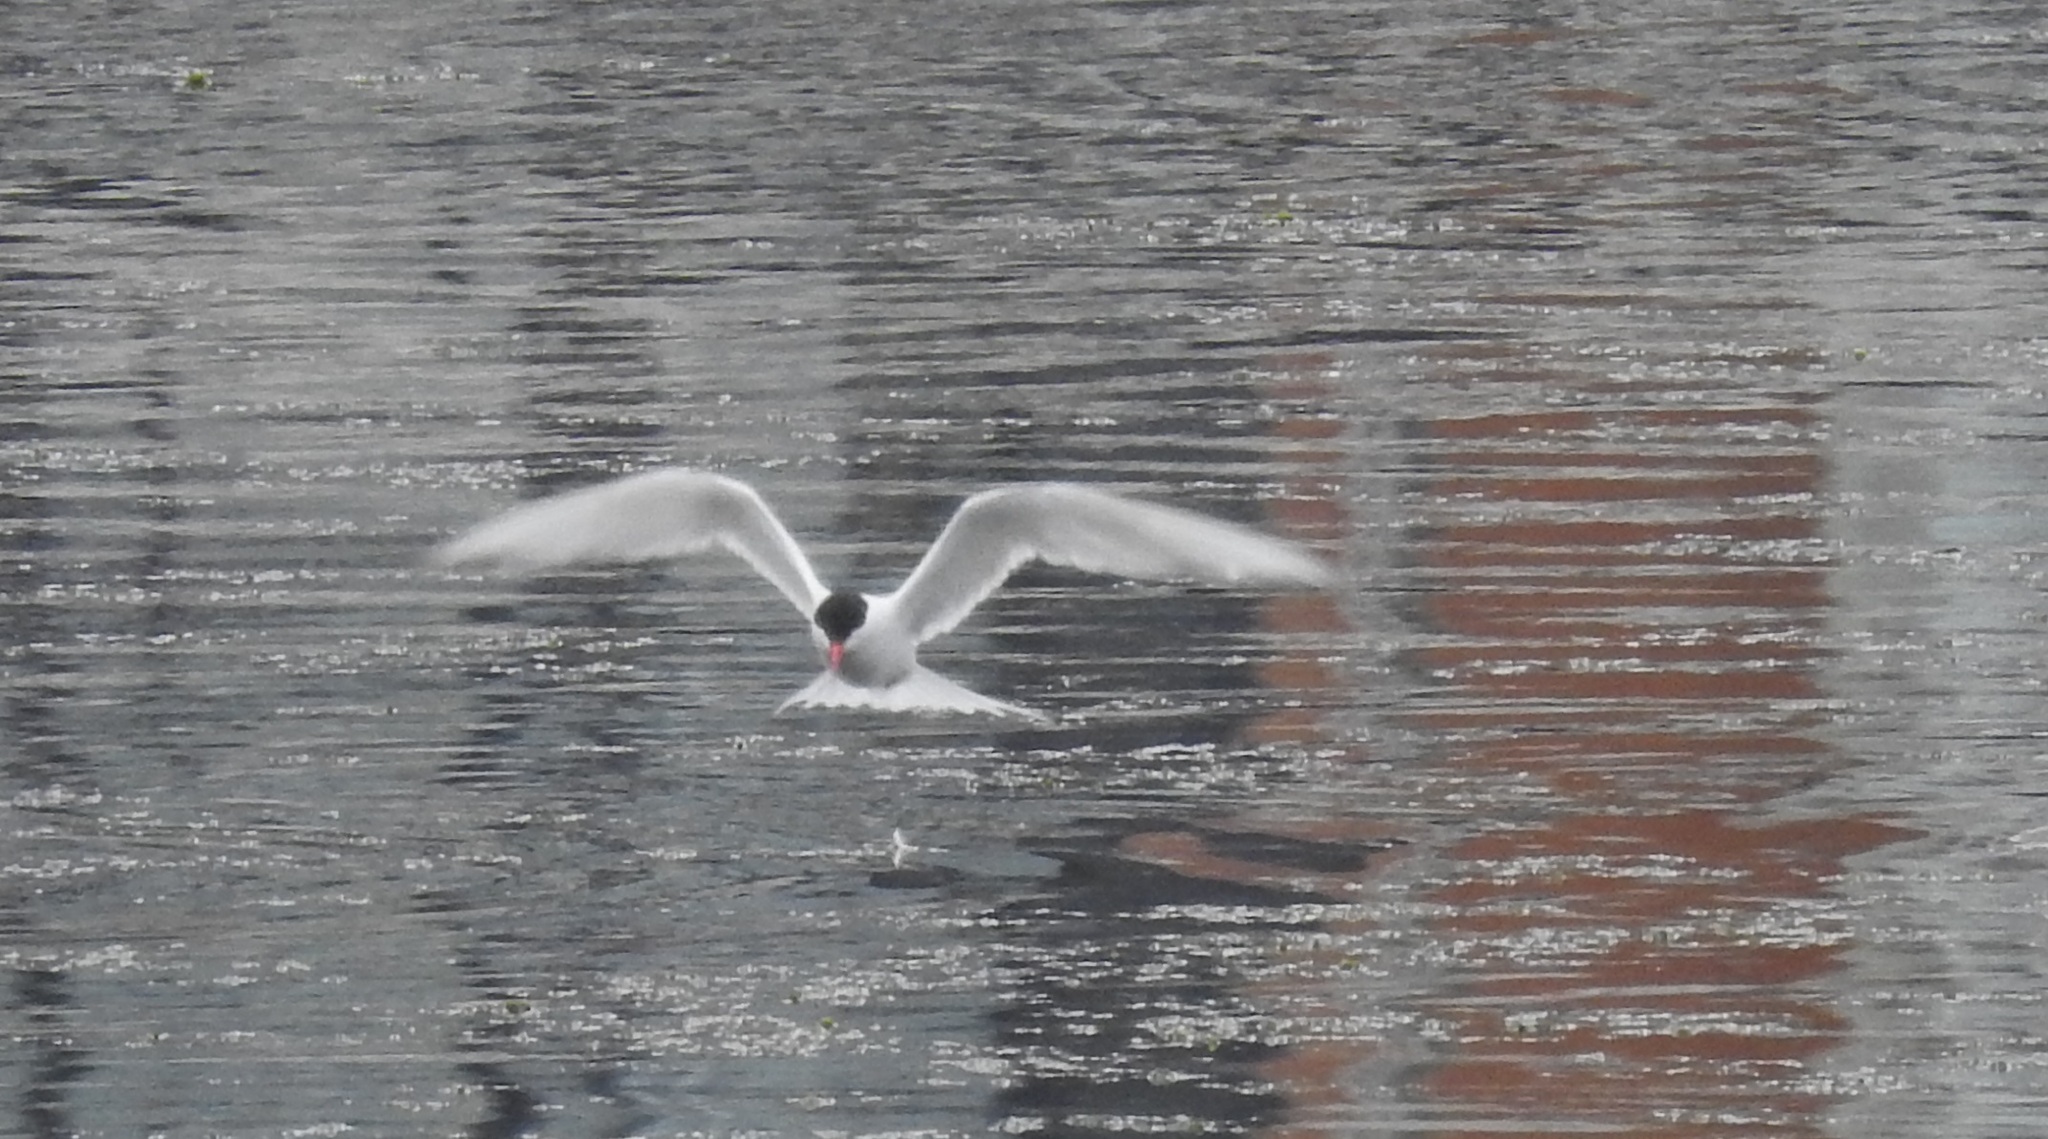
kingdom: Animalia
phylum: Chordata
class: Aves
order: Charadriiformes
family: Laridae
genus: Sterna
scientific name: Sterna hirundinacea
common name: South american tern
